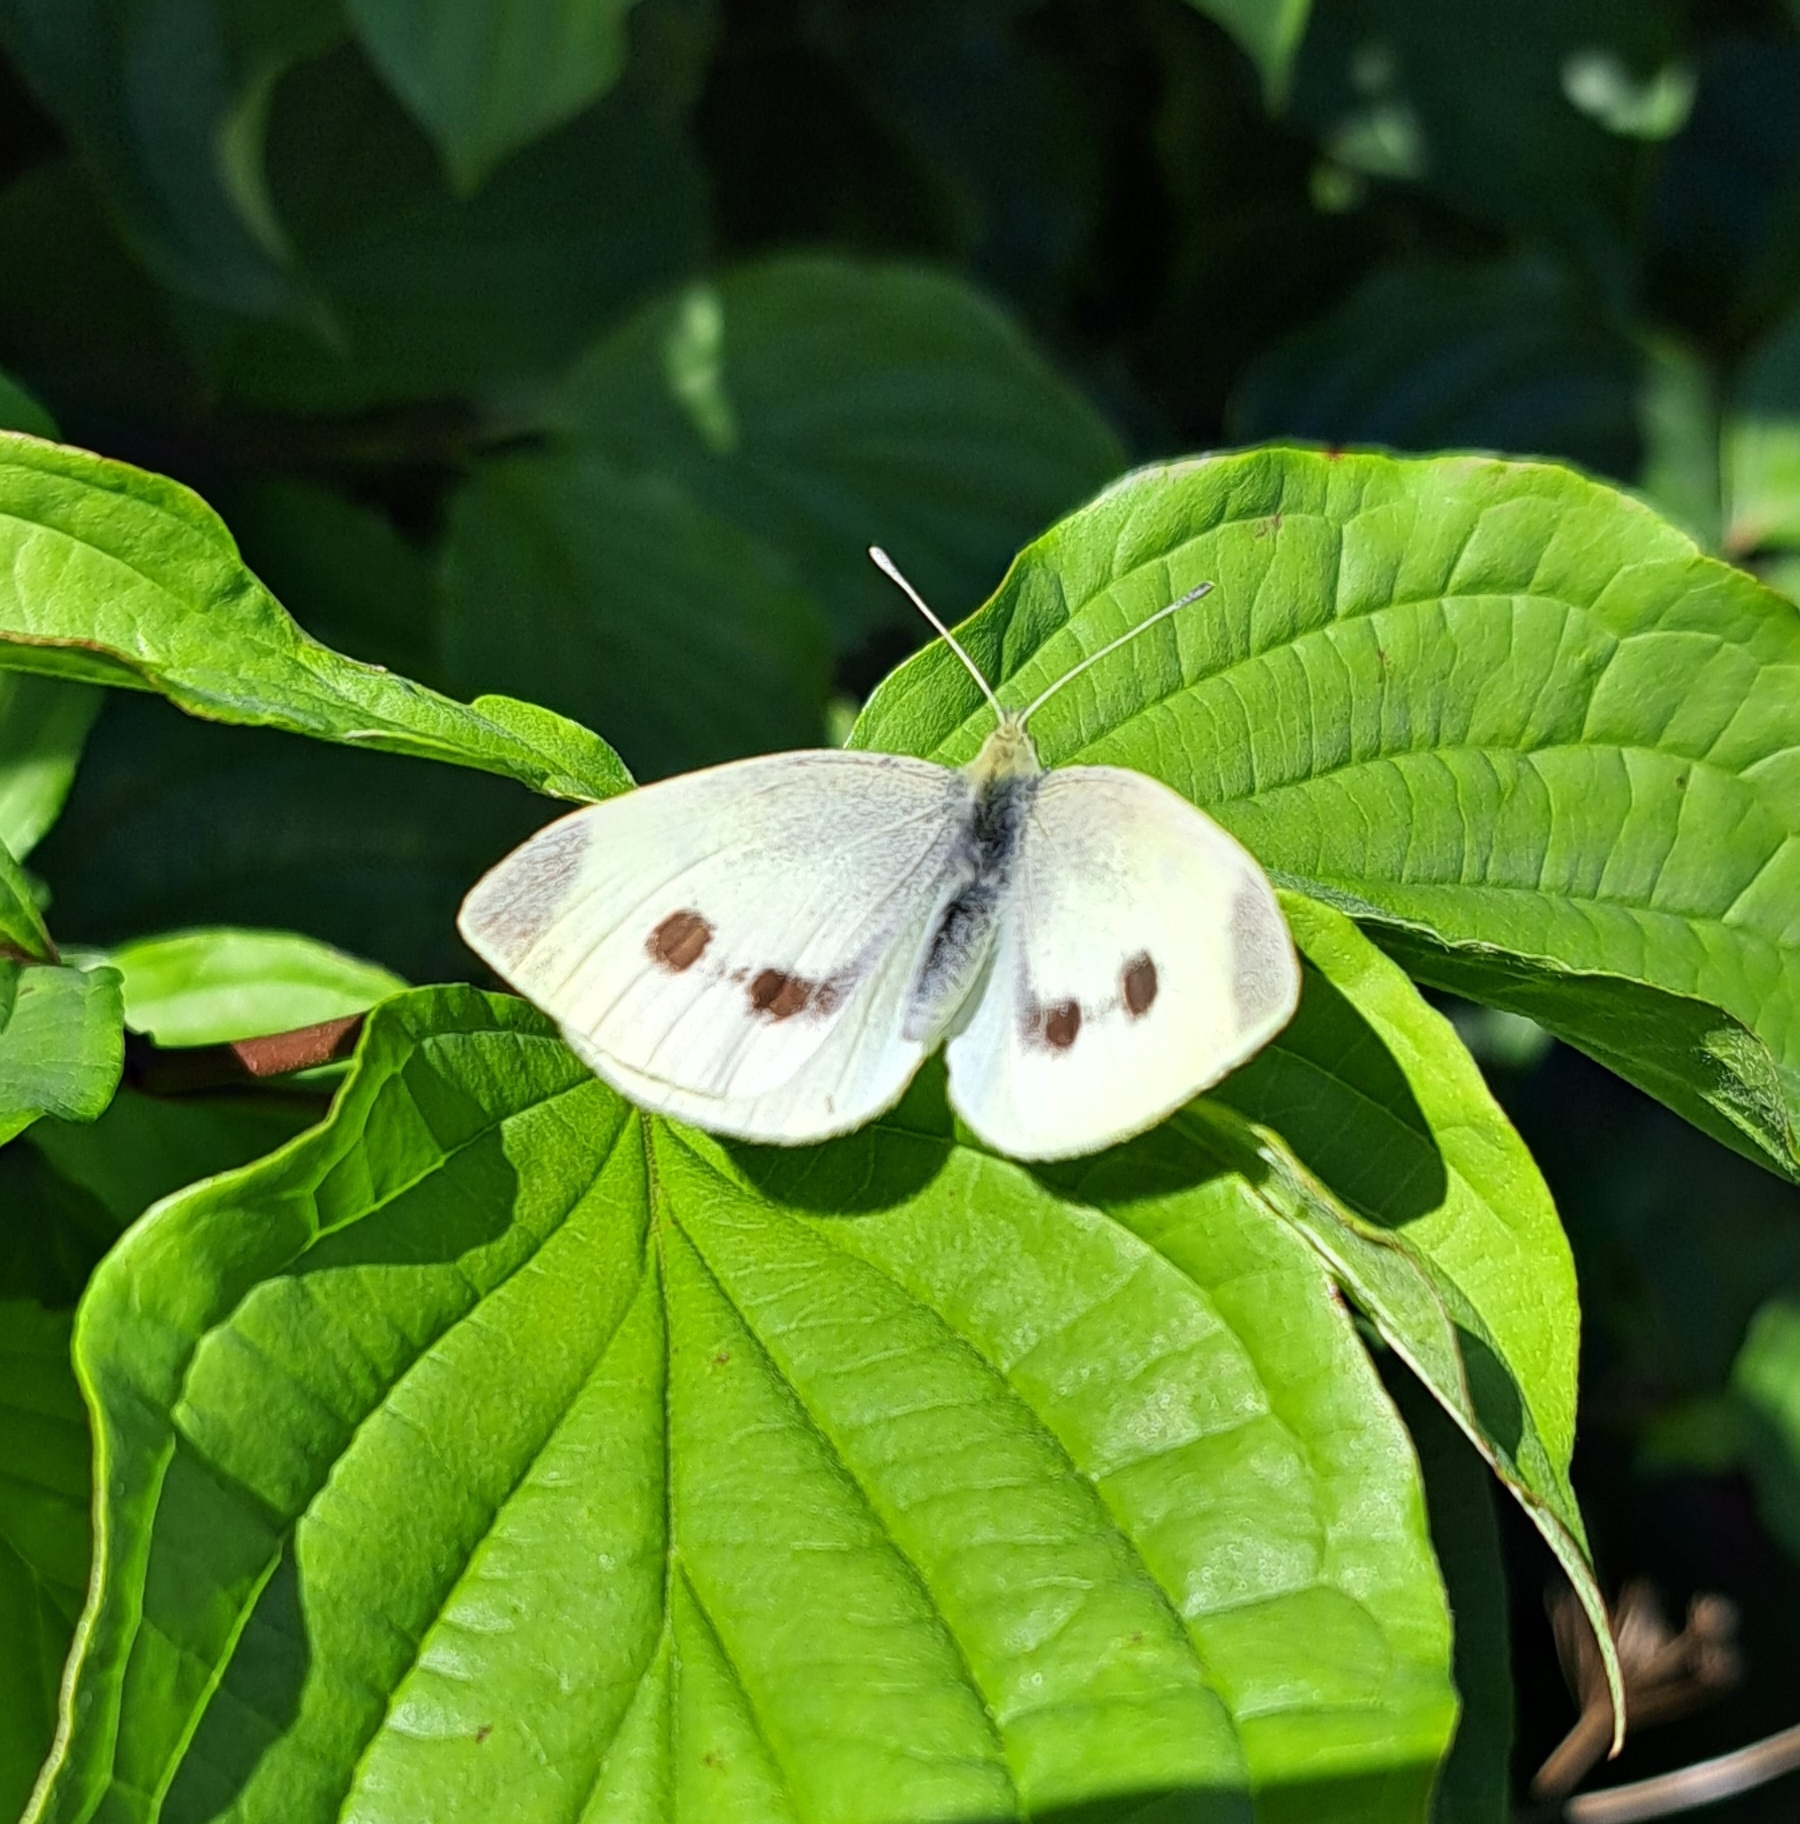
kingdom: Animalia
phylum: Arthropoda
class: Insecta
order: Lepidoptera
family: Pieridae
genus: Pieris
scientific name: Pieris rapae
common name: Small white
